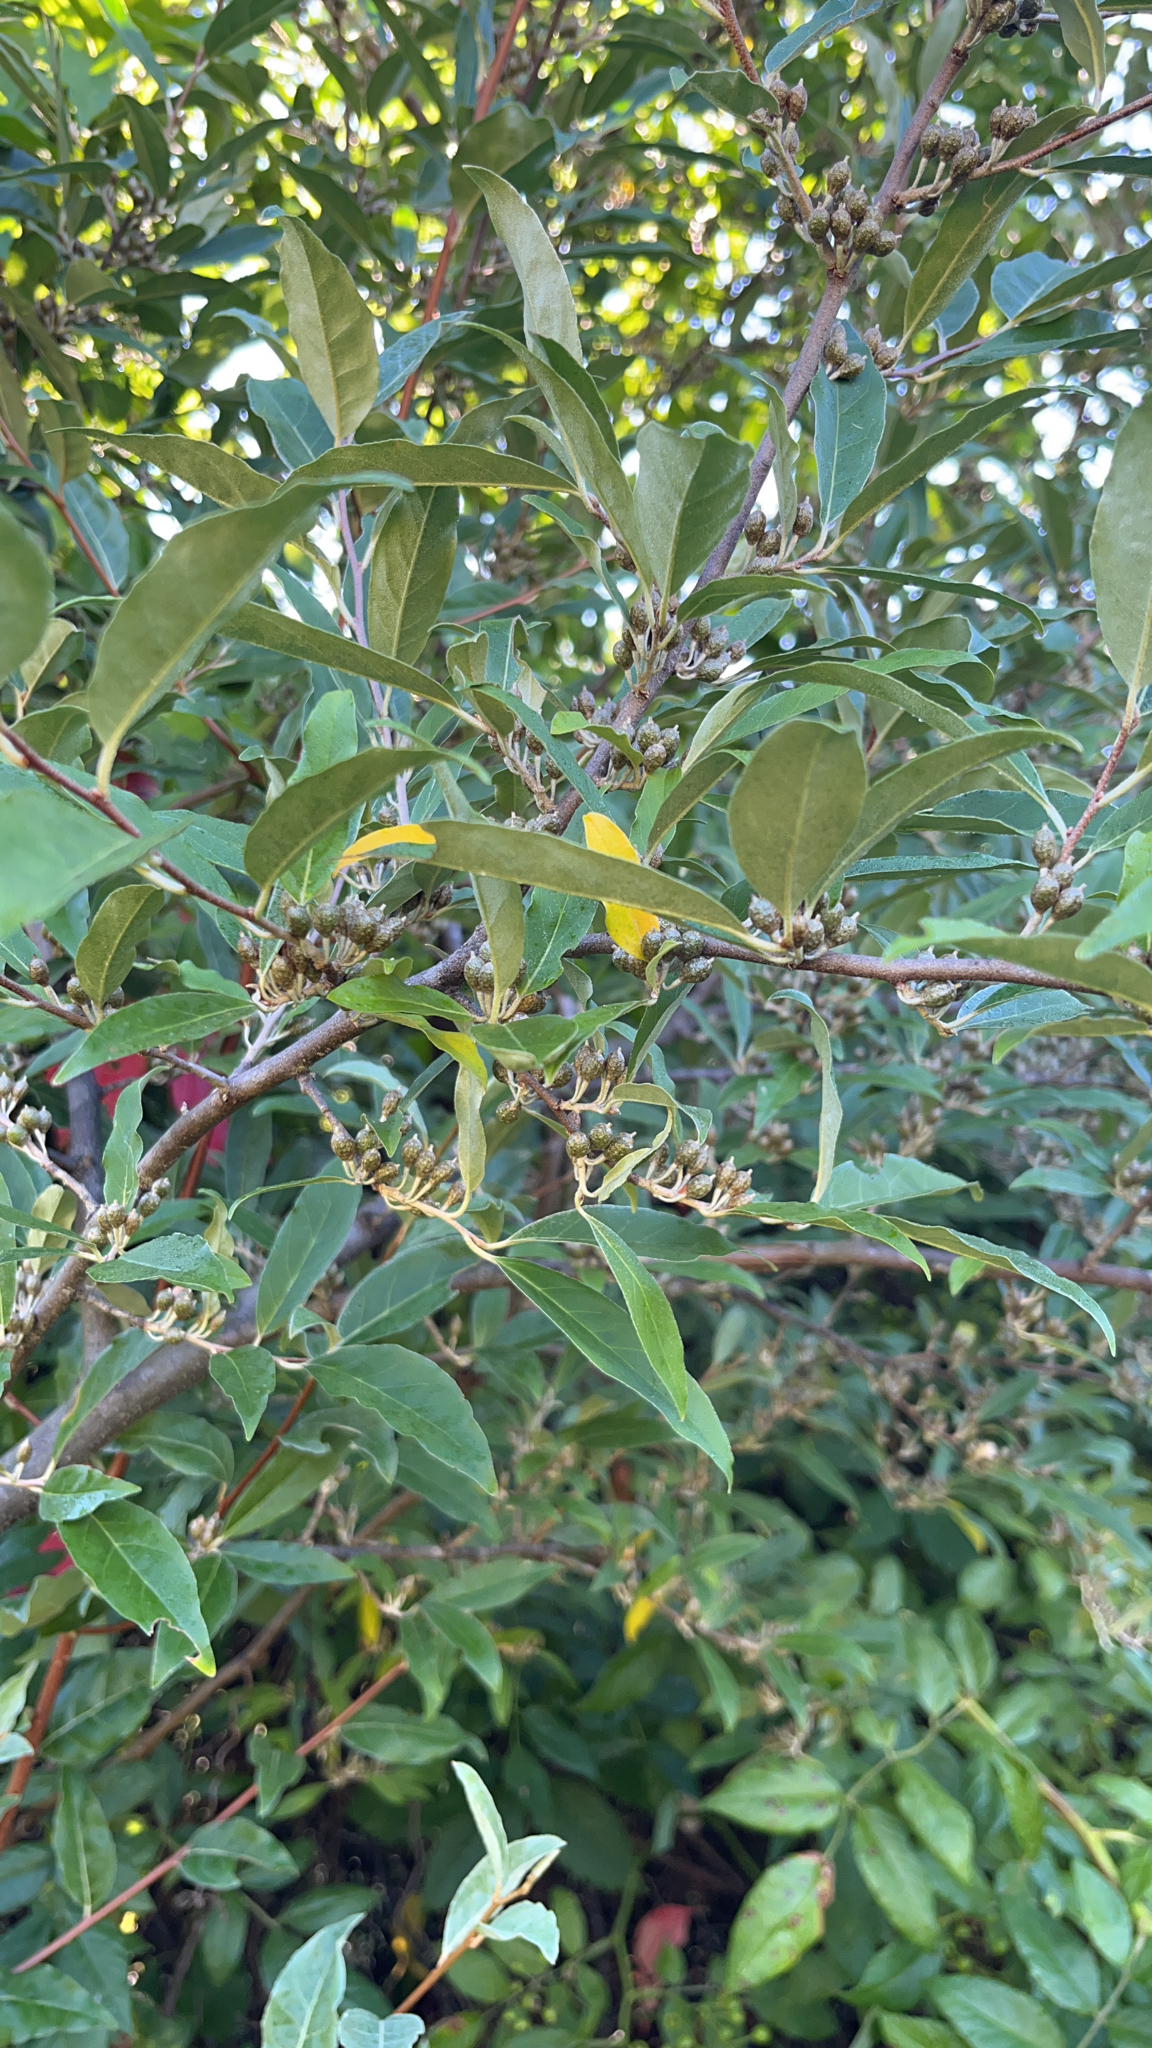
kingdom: Plantae
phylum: Tracheophyta
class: Magnoliopsida
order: Rosales
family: Elaeagnaceae
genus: Elaeagnus
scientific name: Elaeagnus umbellata
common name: Autumn olive
